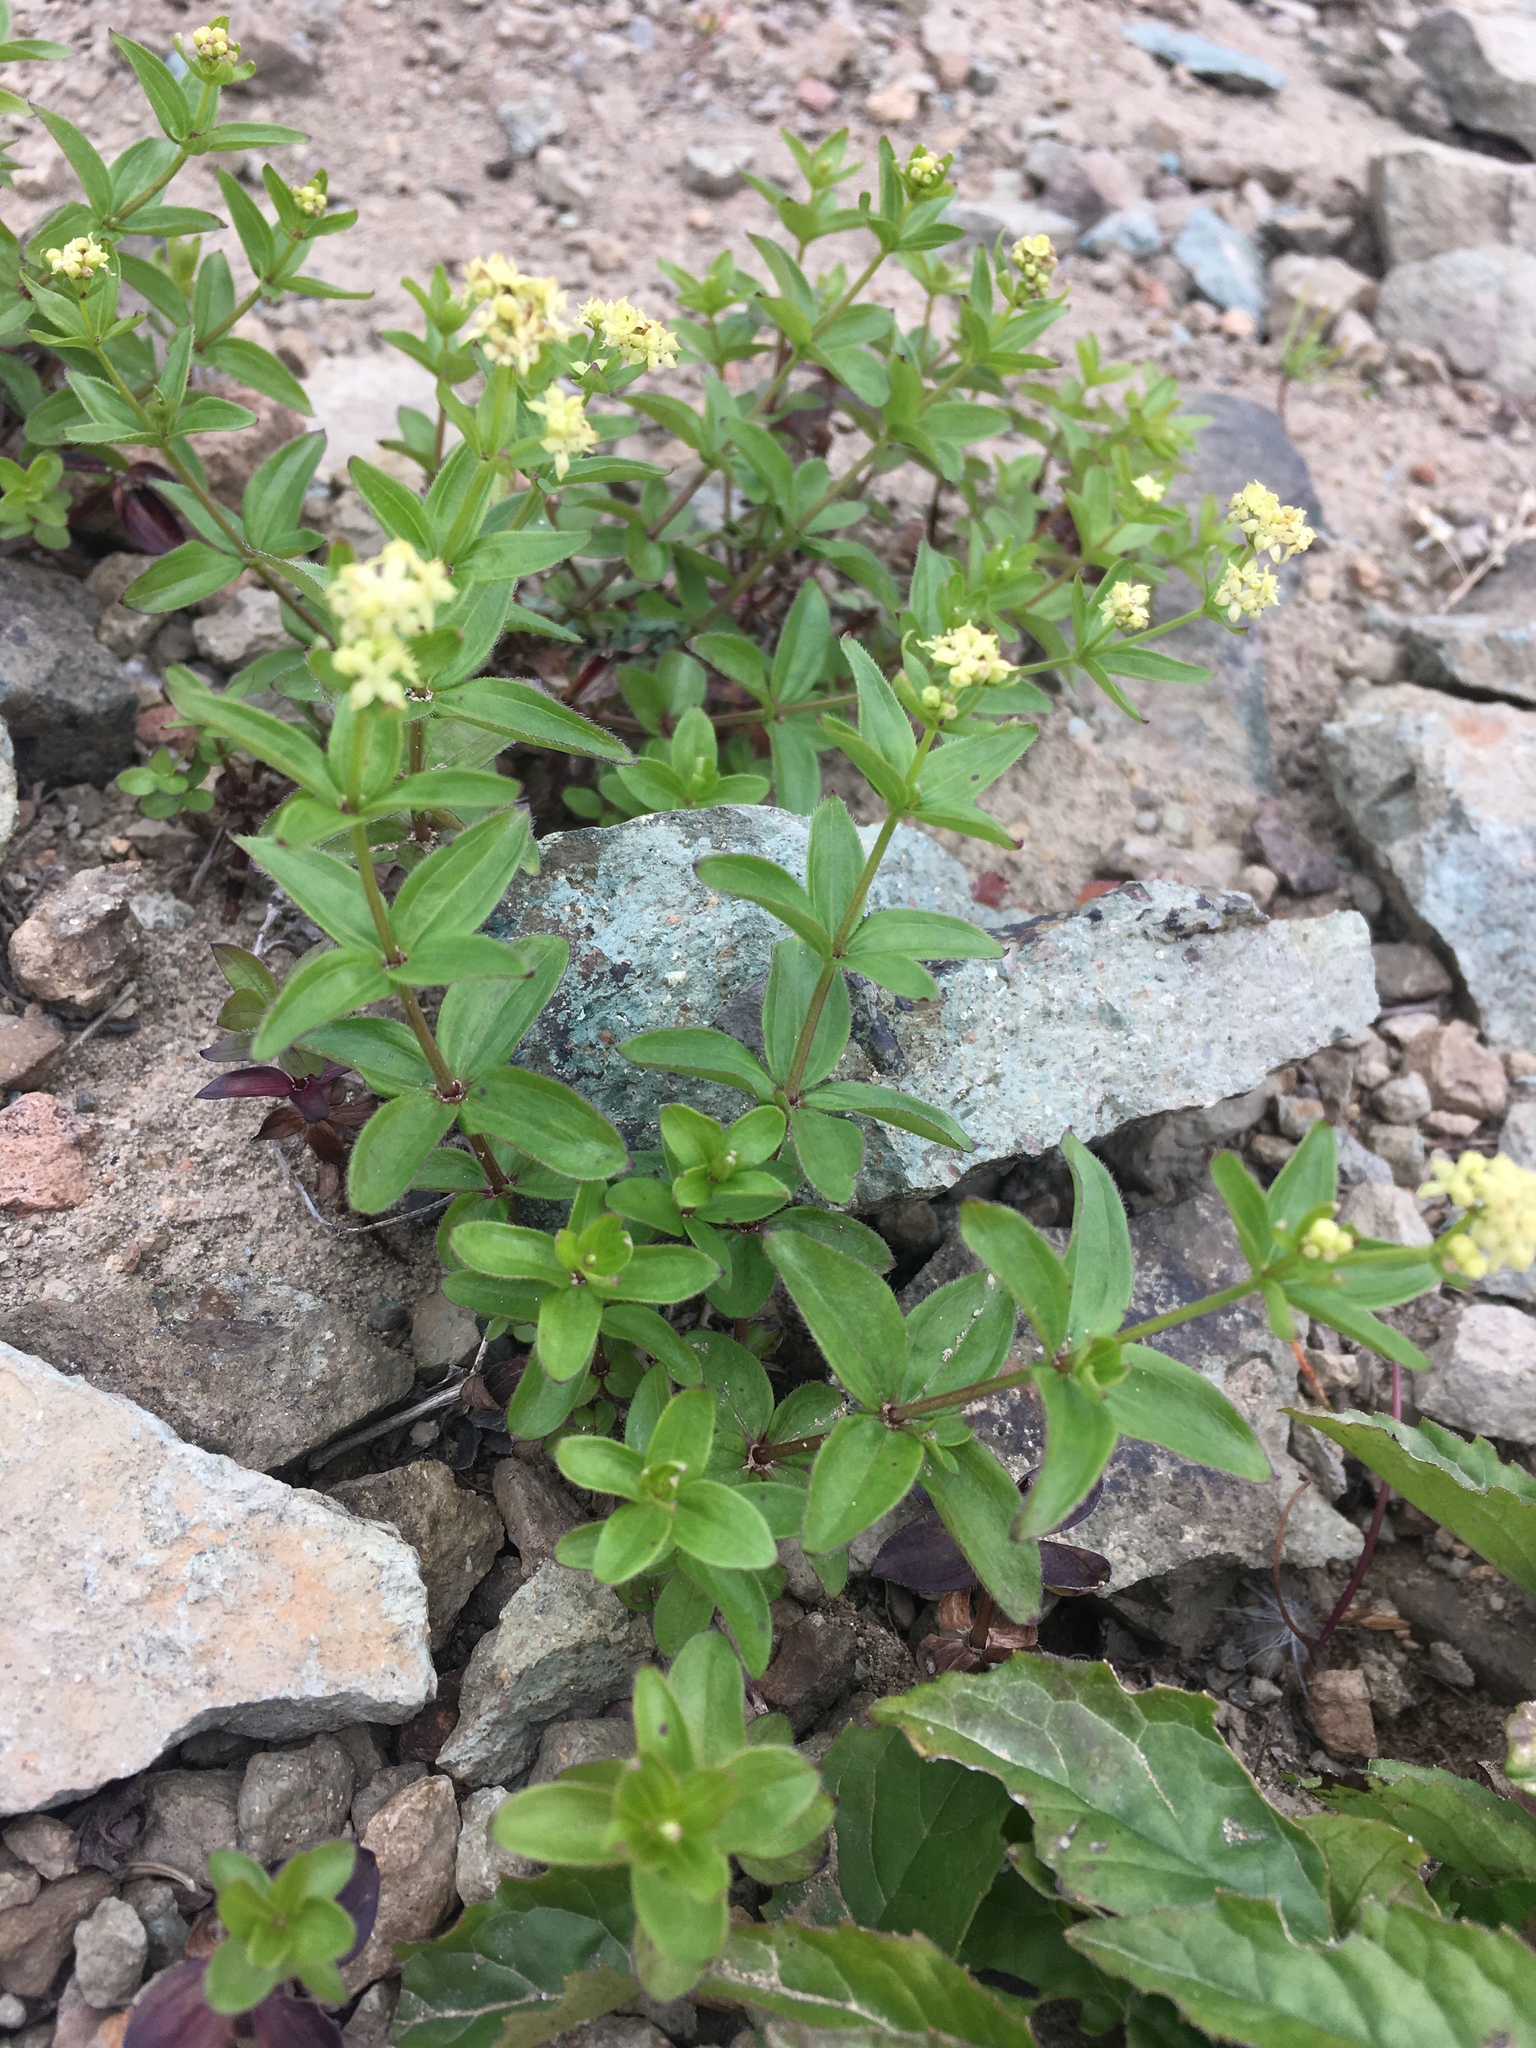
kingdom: Plantae
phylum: Tracheophyta
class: Magnoliopsida
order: Gentianales
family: Rubiaceae
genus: Galium
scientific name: Galium oreganum
